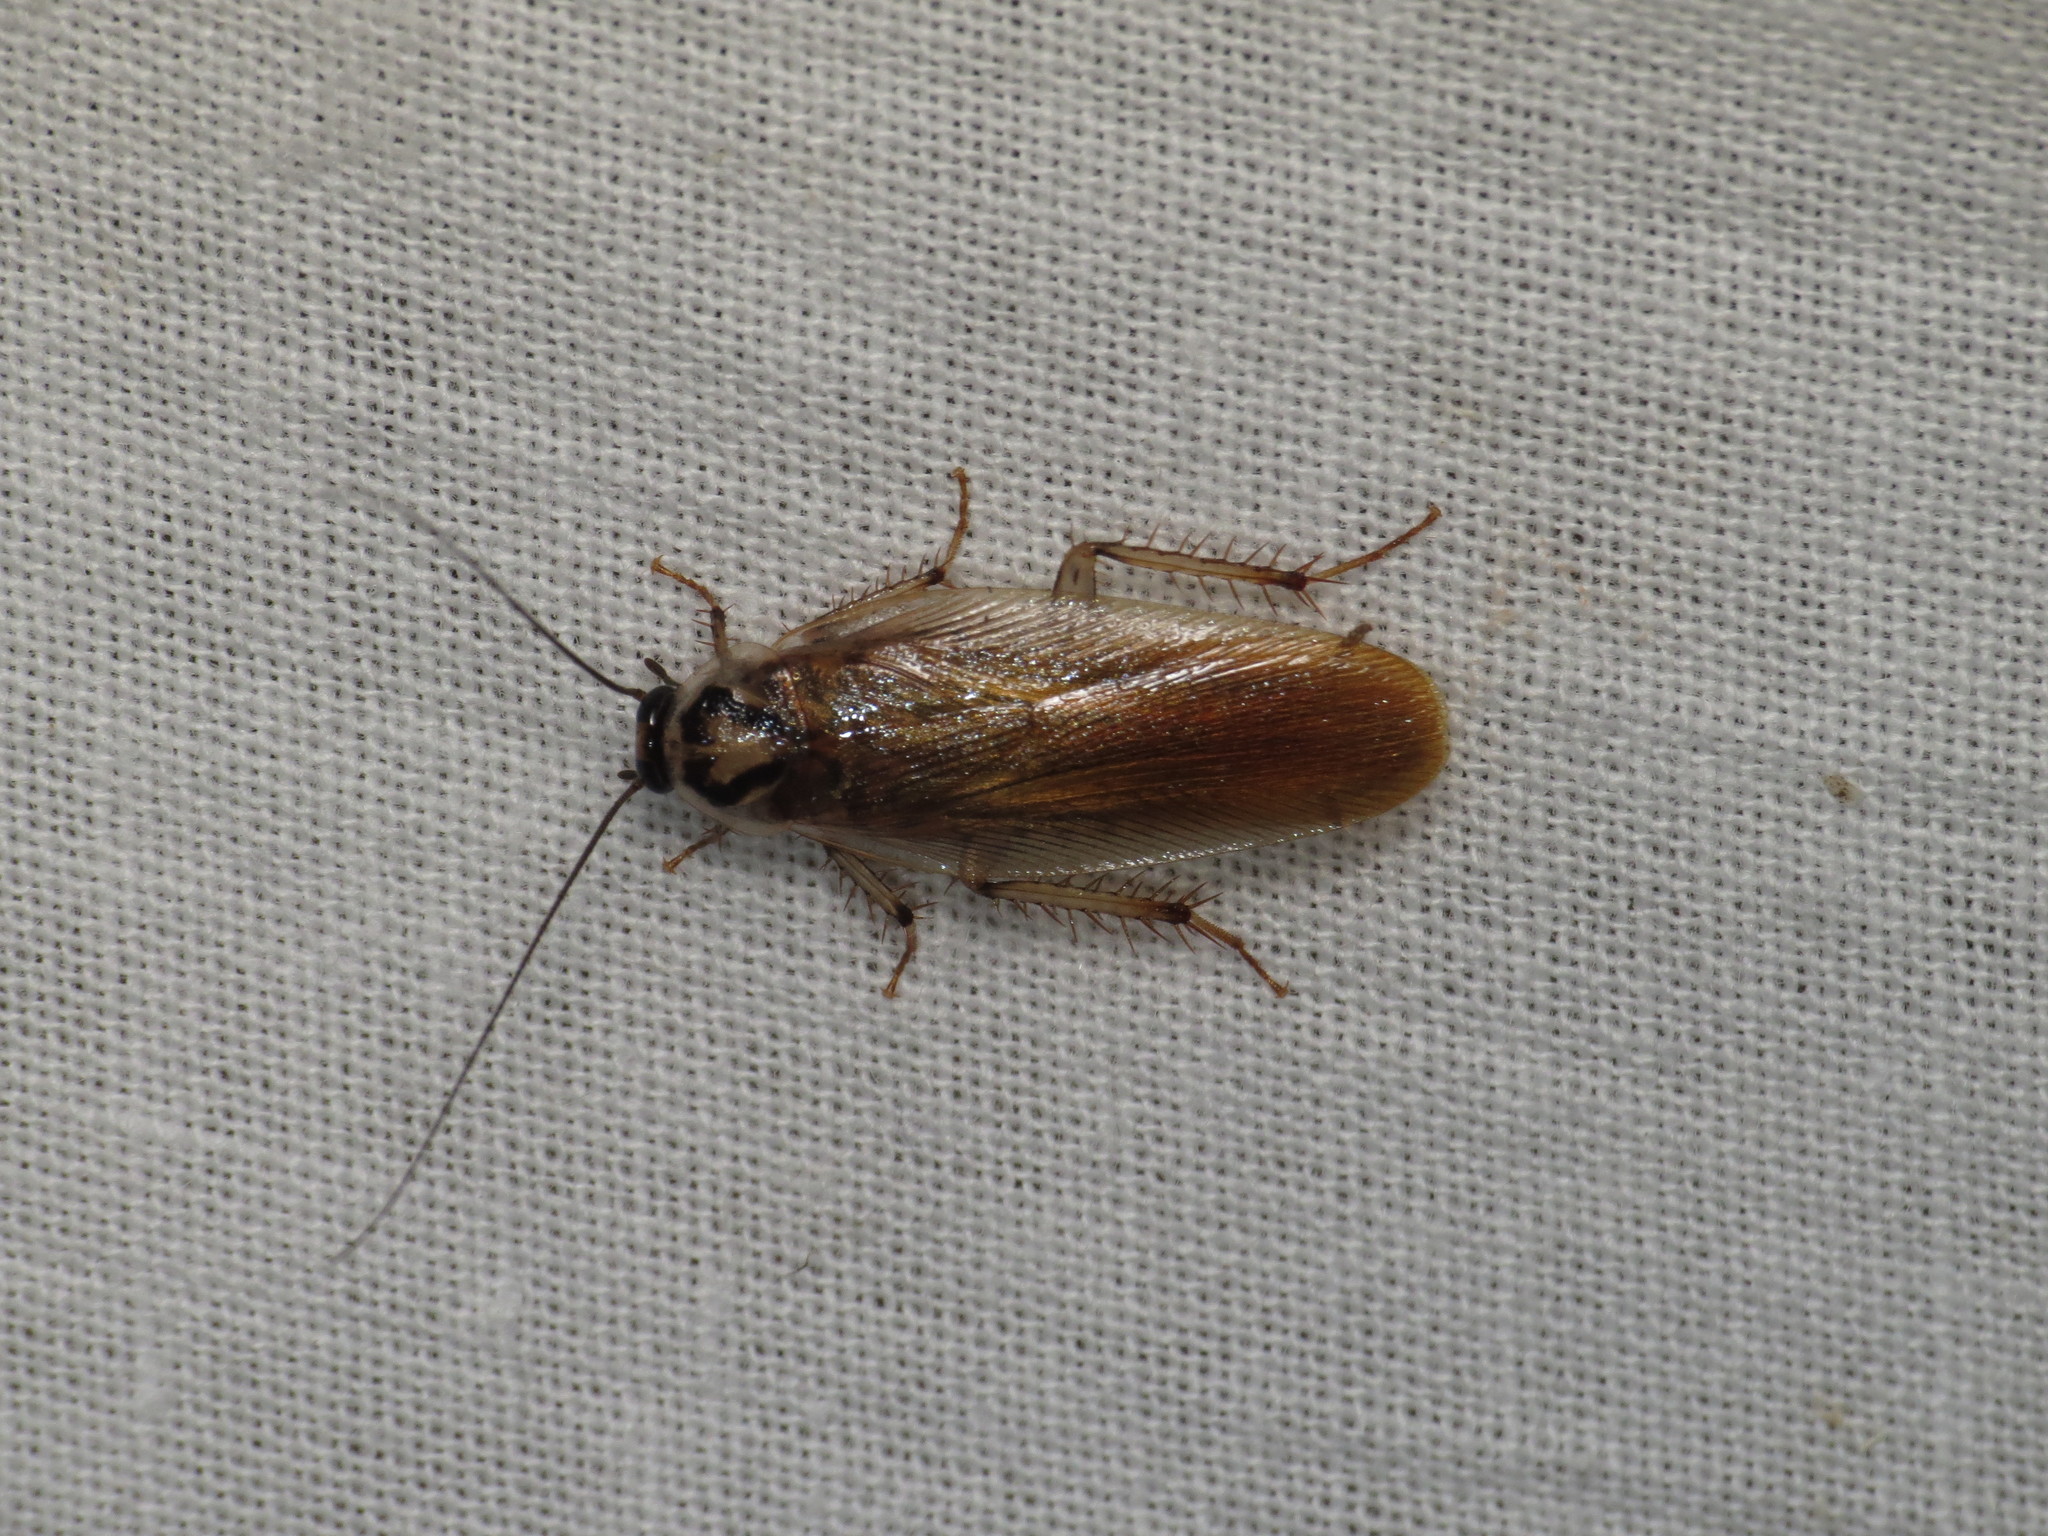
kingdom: Animalia
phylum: Arthropoda
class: Insecta
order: Blattodea
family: Ectobiidae
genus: Johnrehnia
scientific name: Johnrehnia solida
